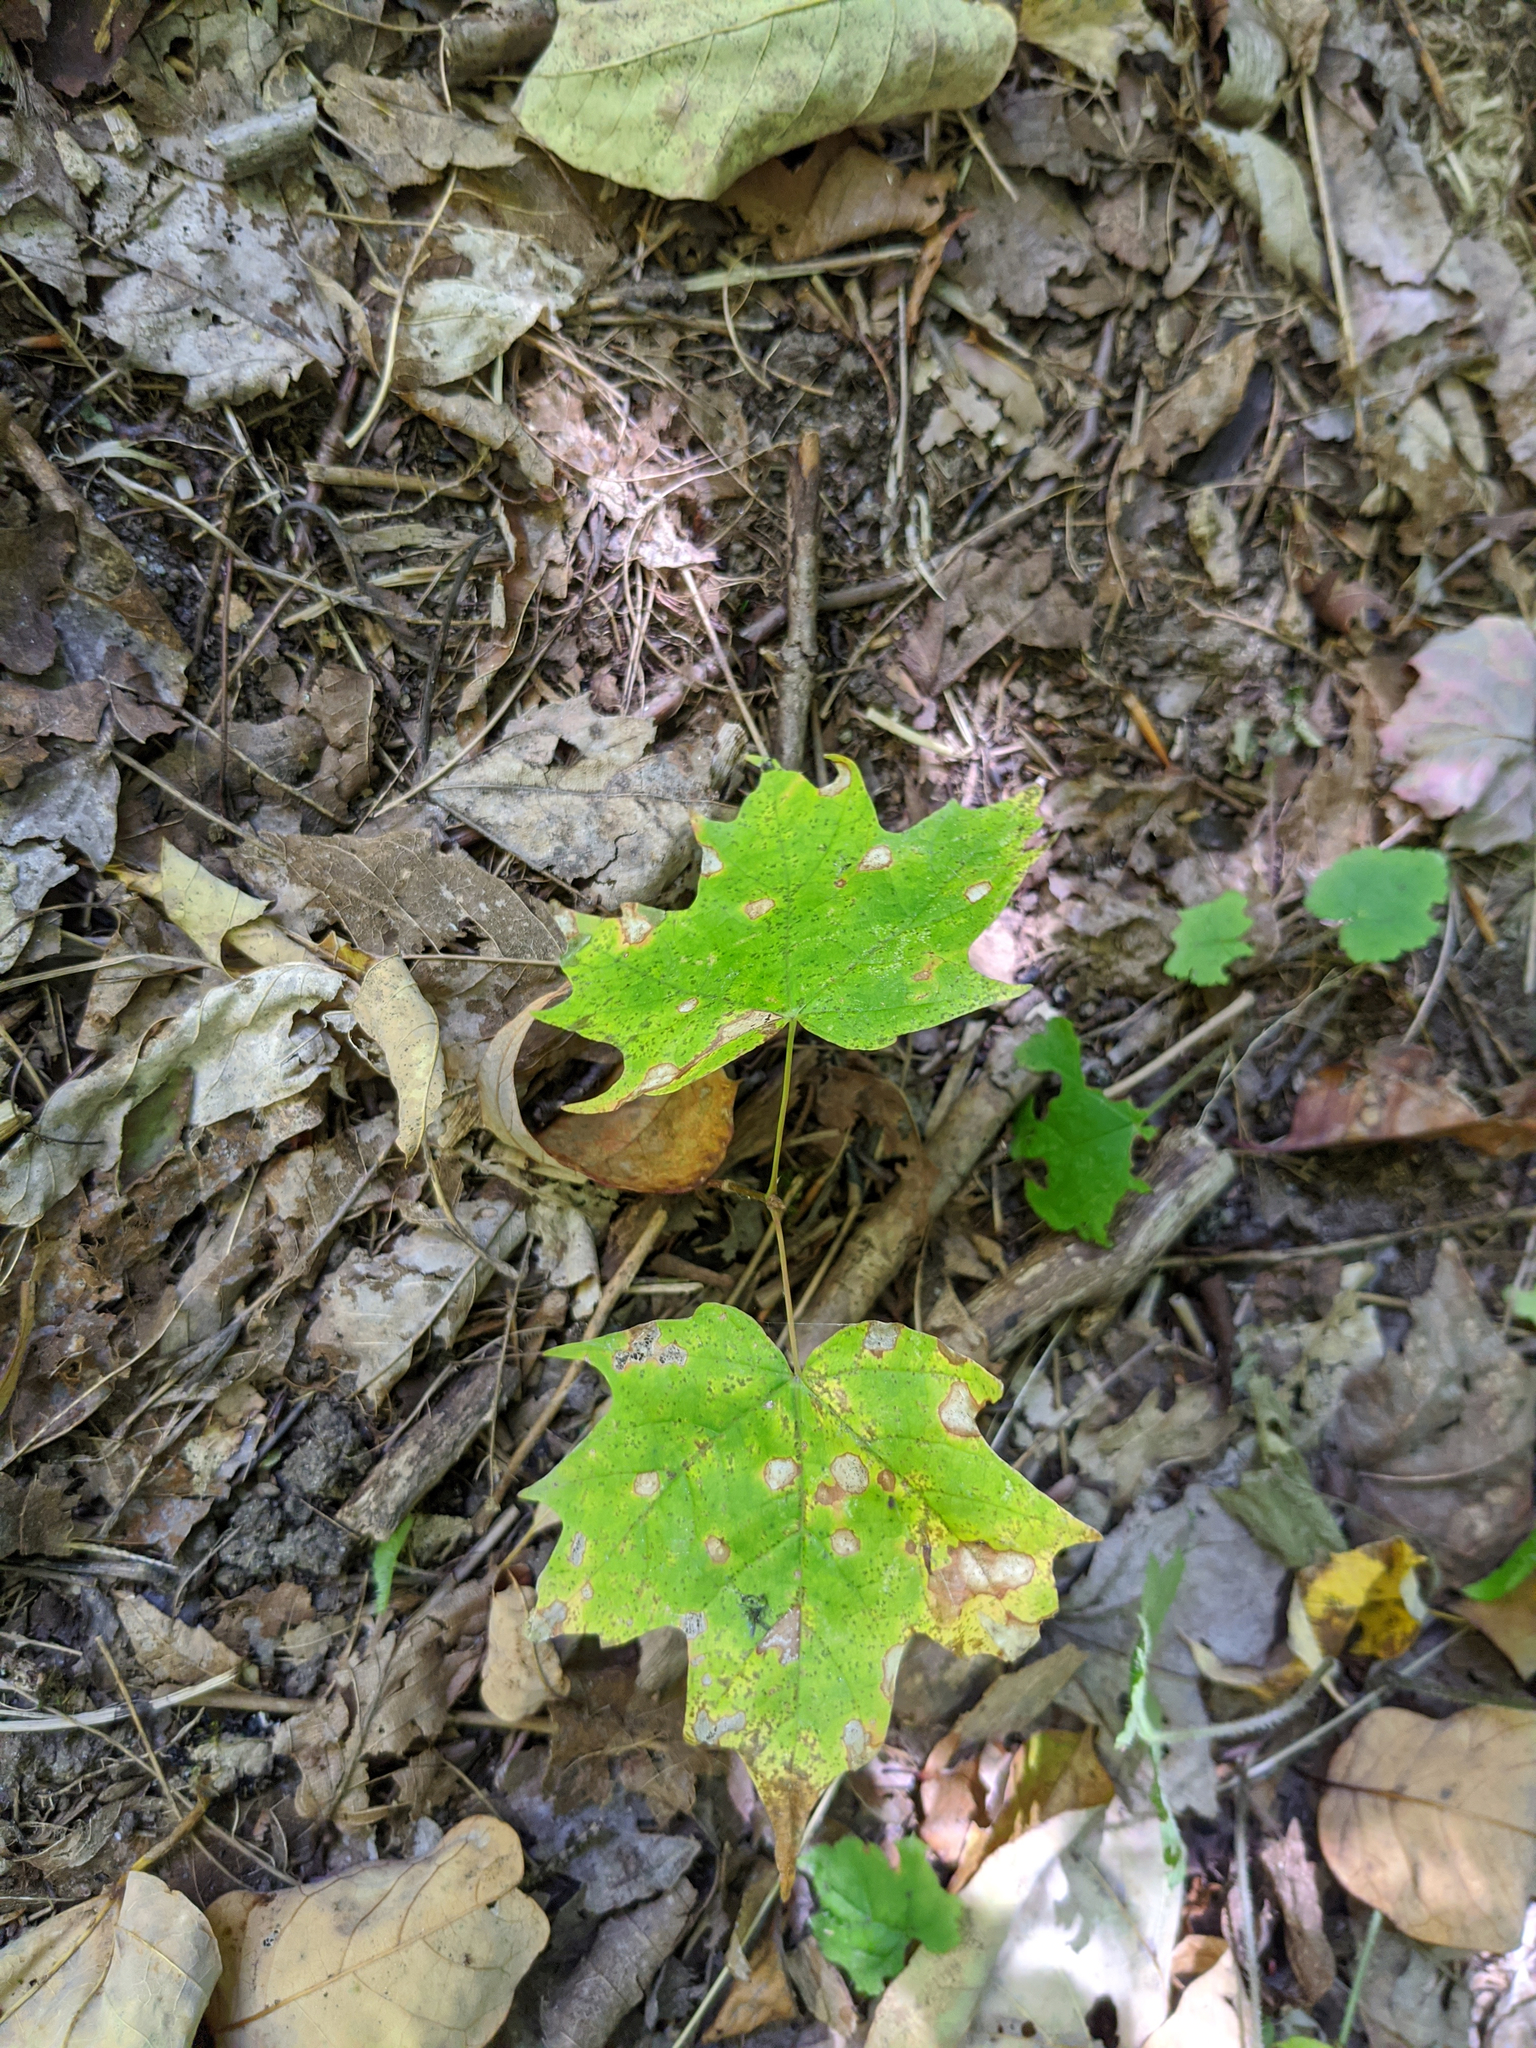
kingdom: Plantae
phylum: Tracheophyta
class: Magnoliopsida
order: Sapindales
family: Sapindaceae
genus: Acer
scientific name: Acer saccharum
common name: Sugar maple
